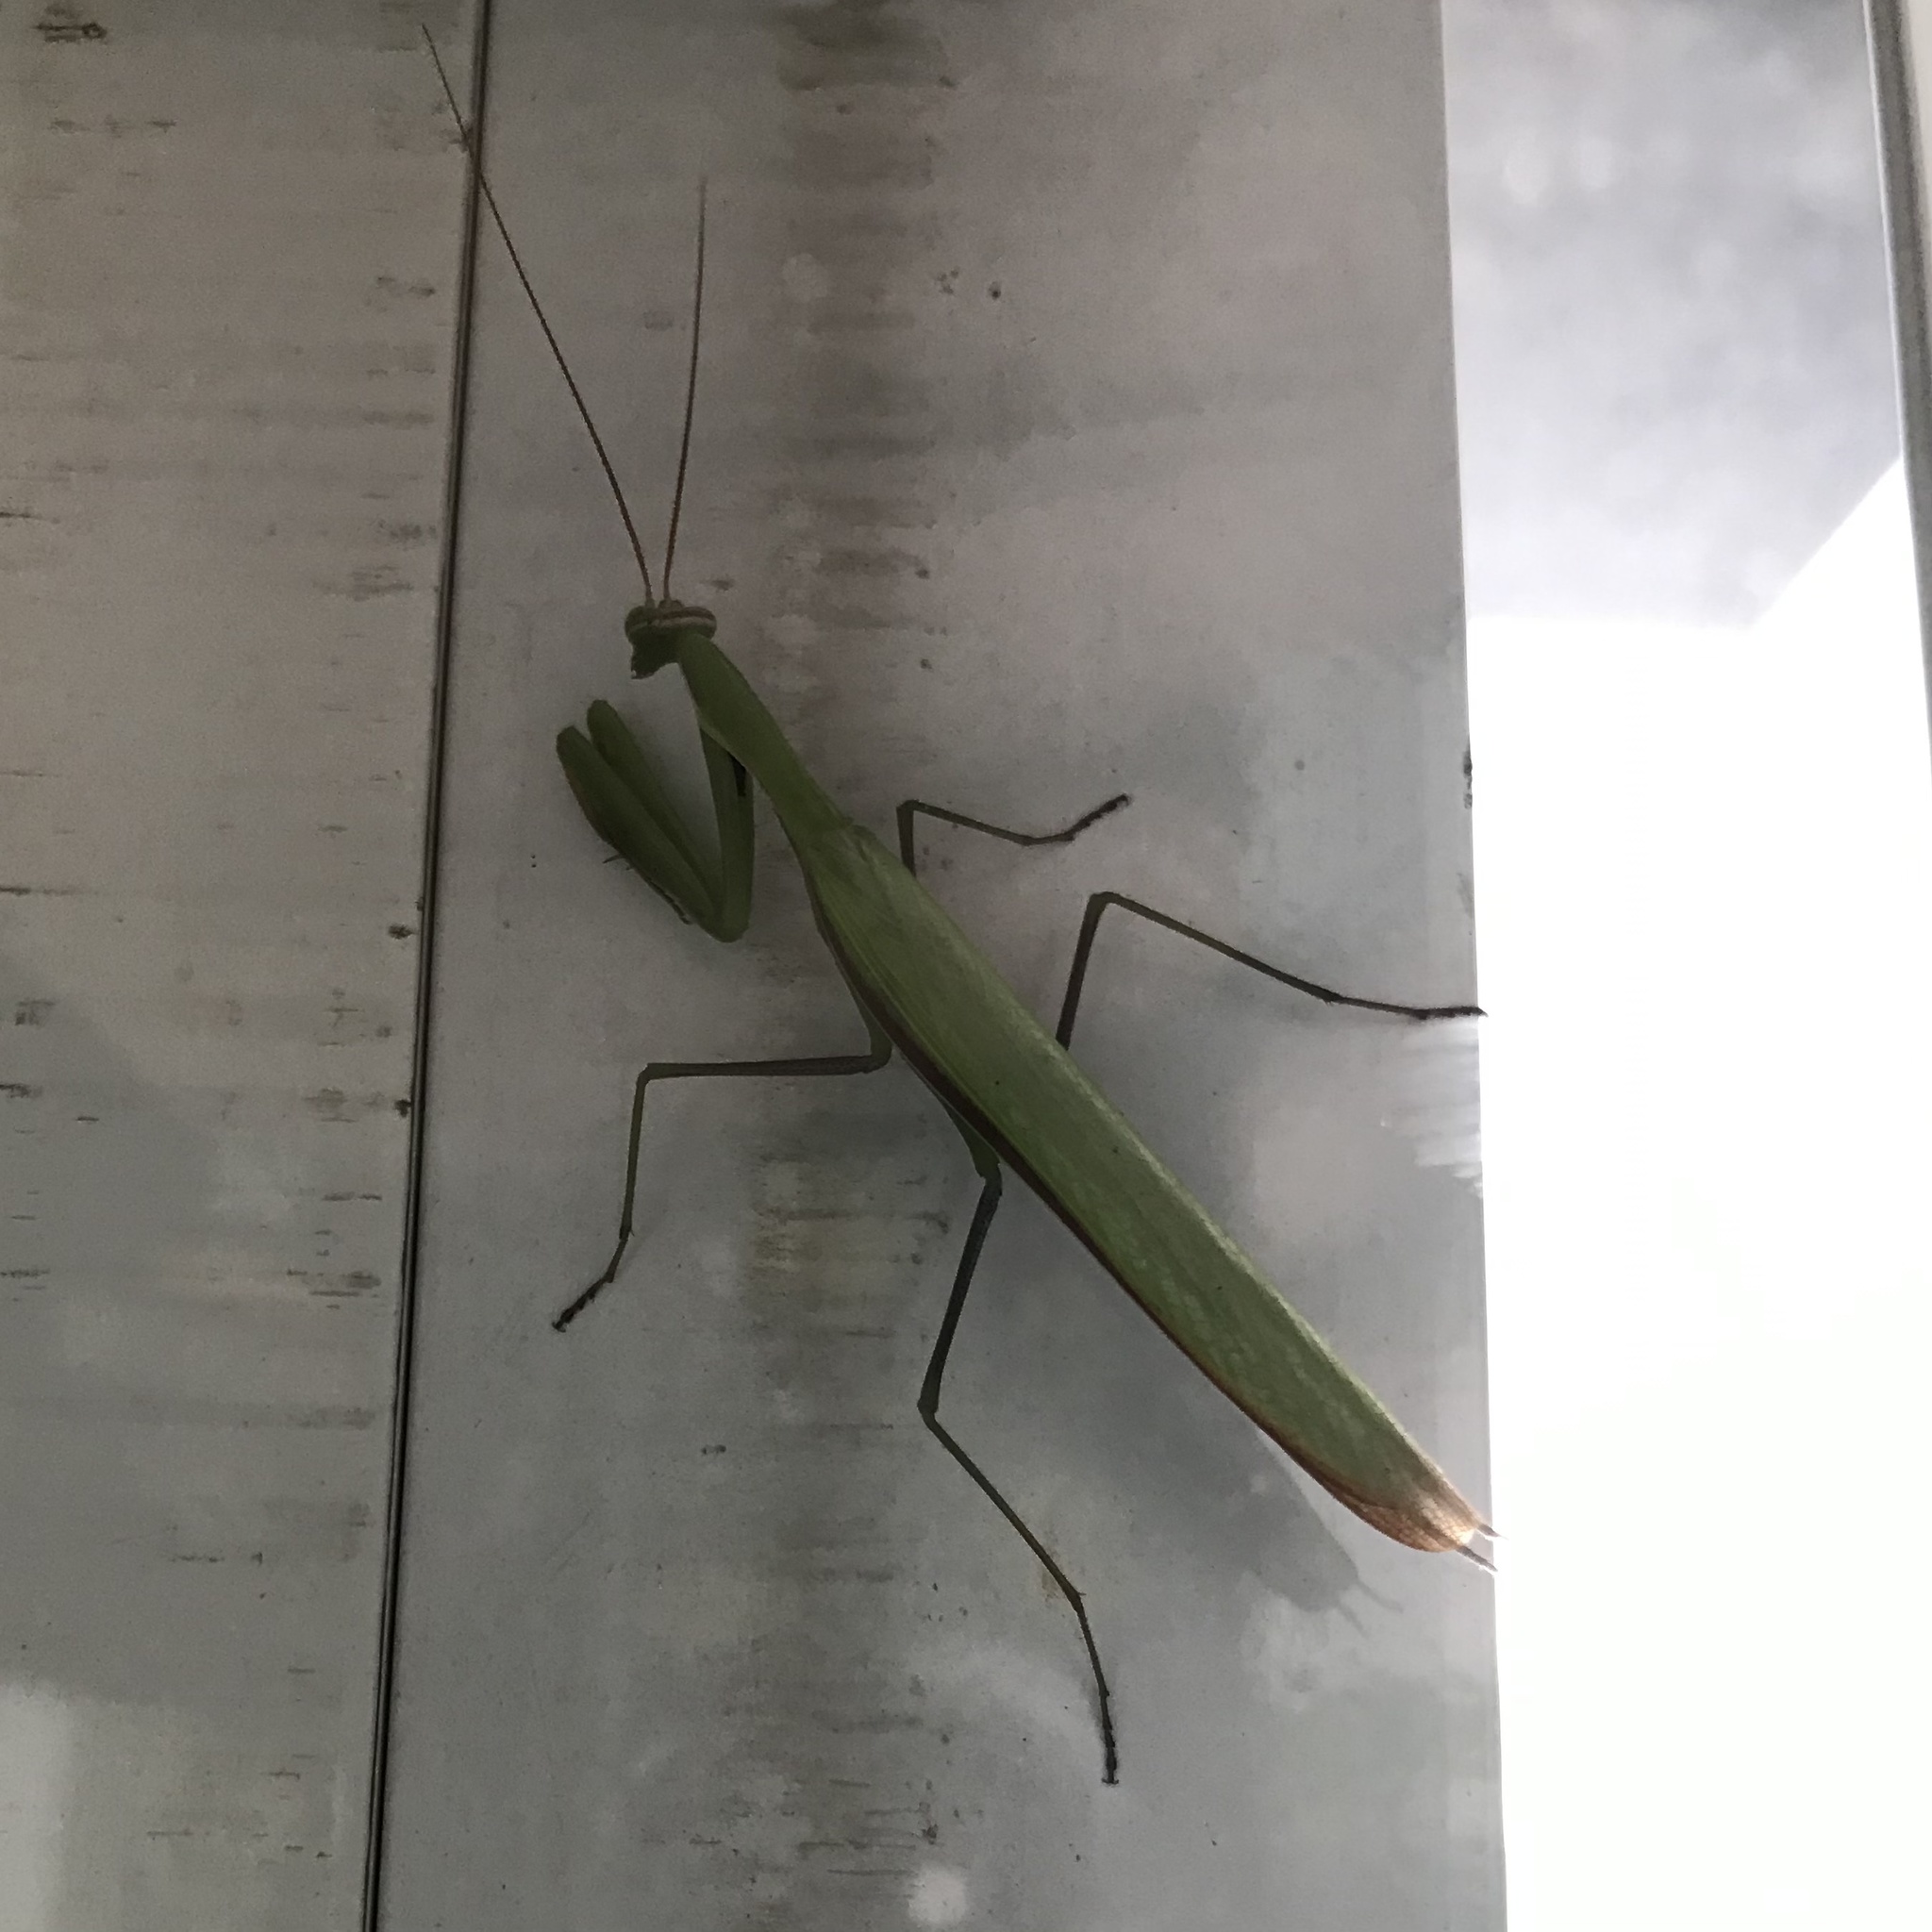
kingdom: Animalia
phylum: Arthropoda
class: Insecta
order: Mantodea
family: Mantidae
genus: Mantis
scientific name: Mantis octospilota
